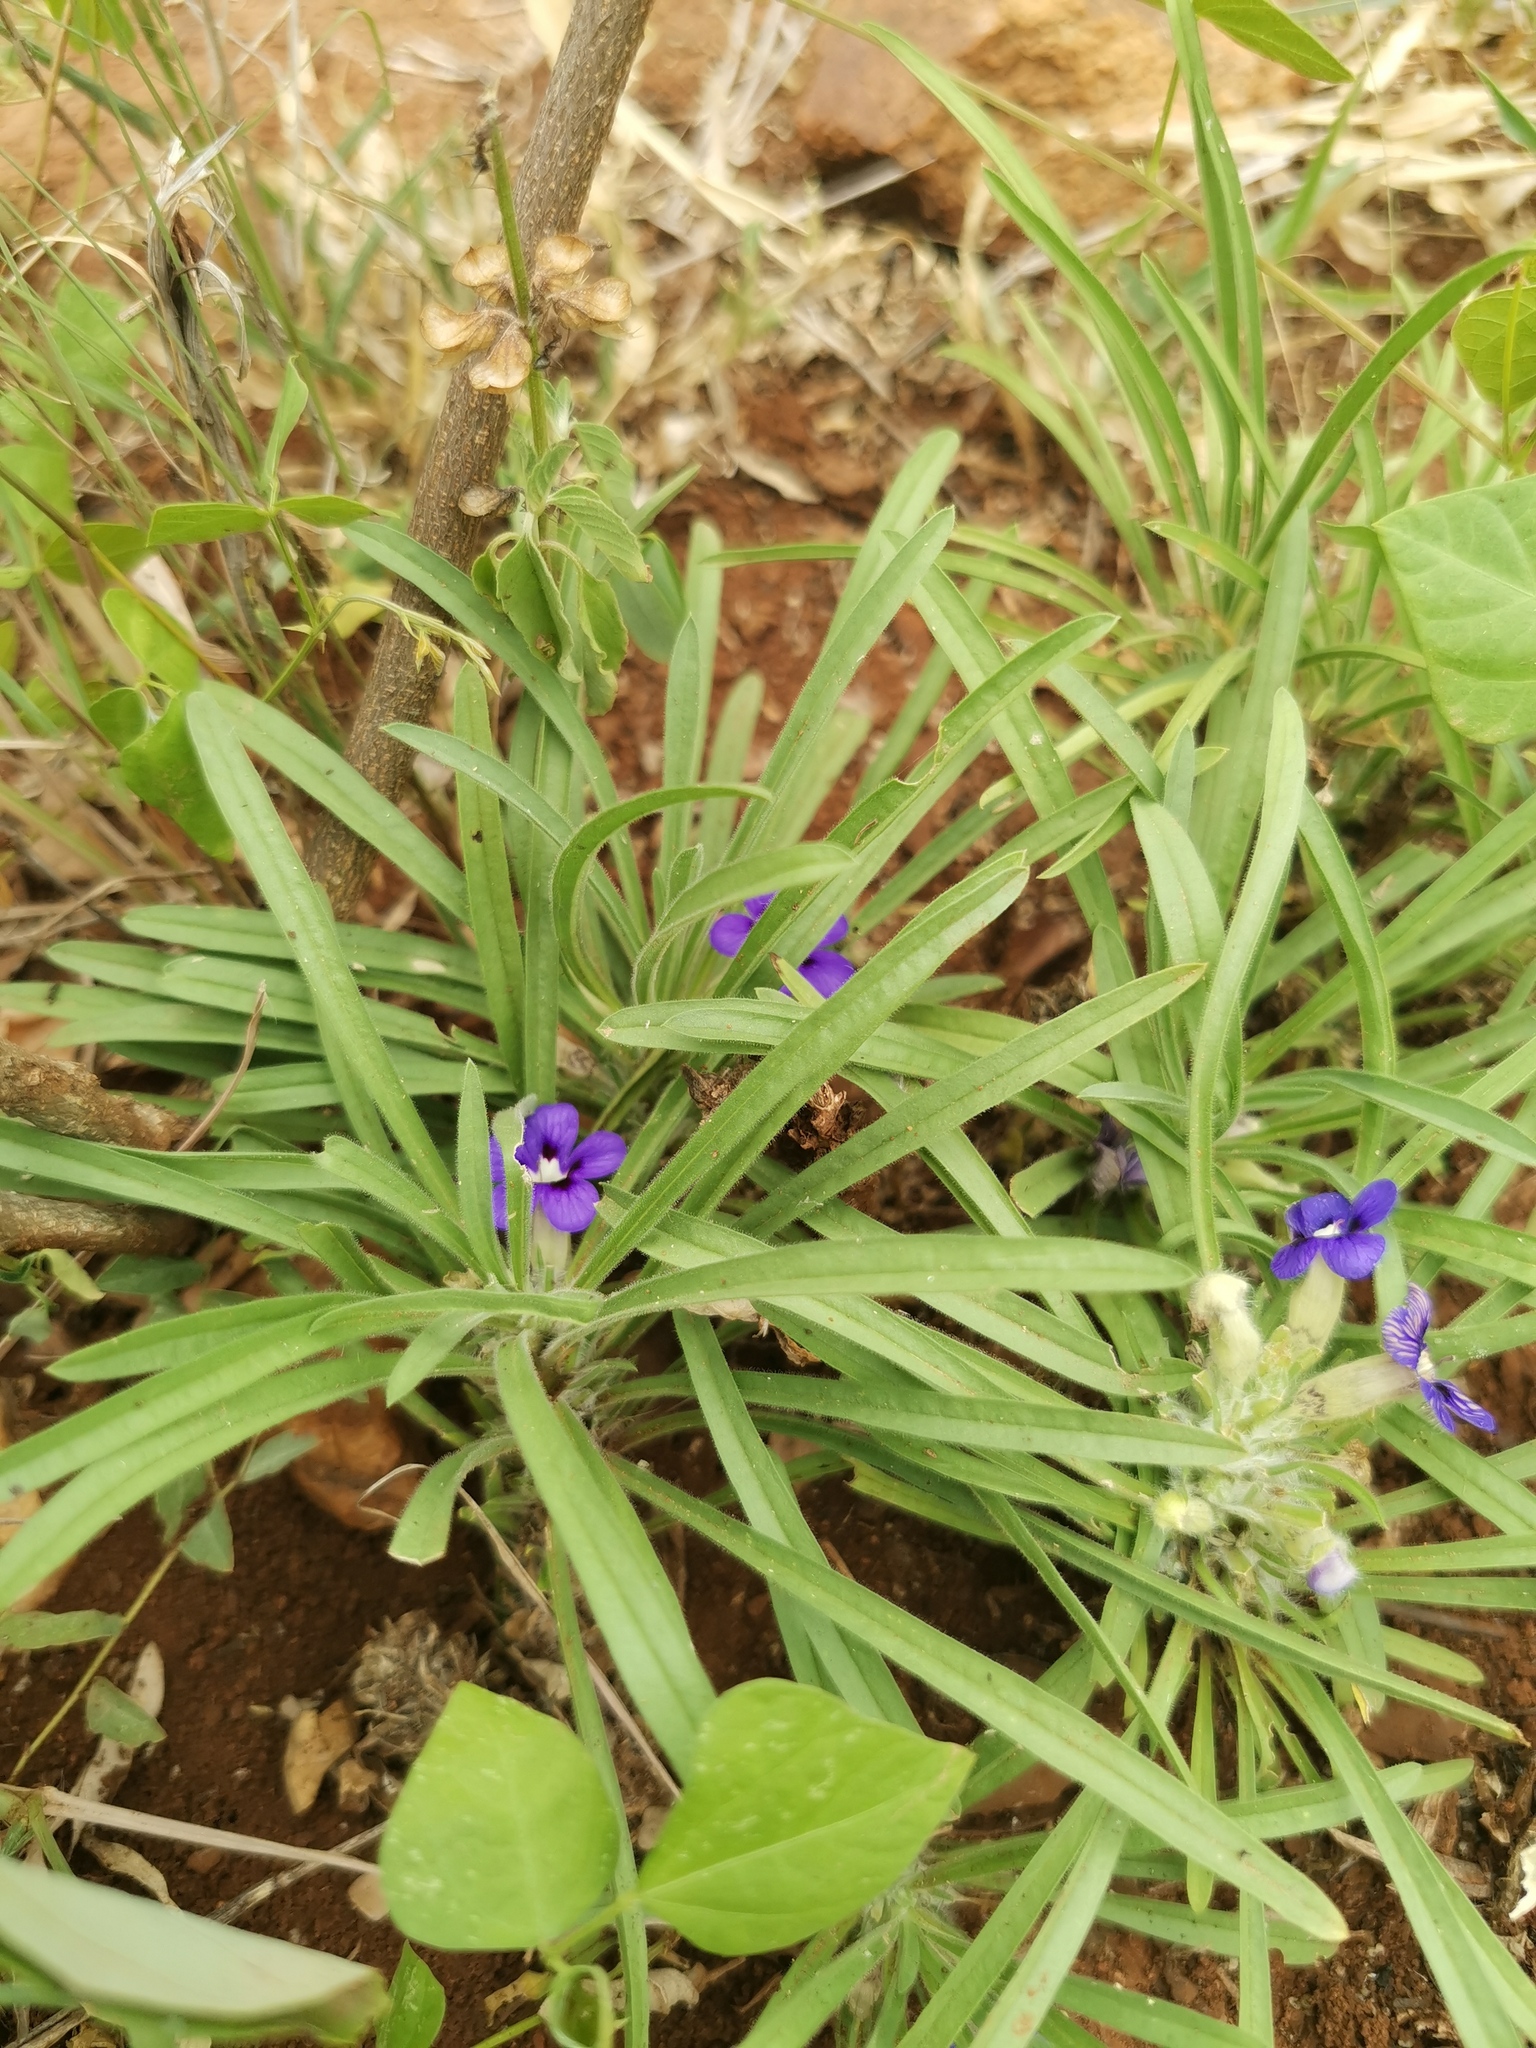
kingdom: Plantae
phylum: Tracheophyta
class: Magnoliopsida
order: Lamiales
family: Scrophulariaceae
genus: Aptosimum
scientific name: Aptosimum lineare
